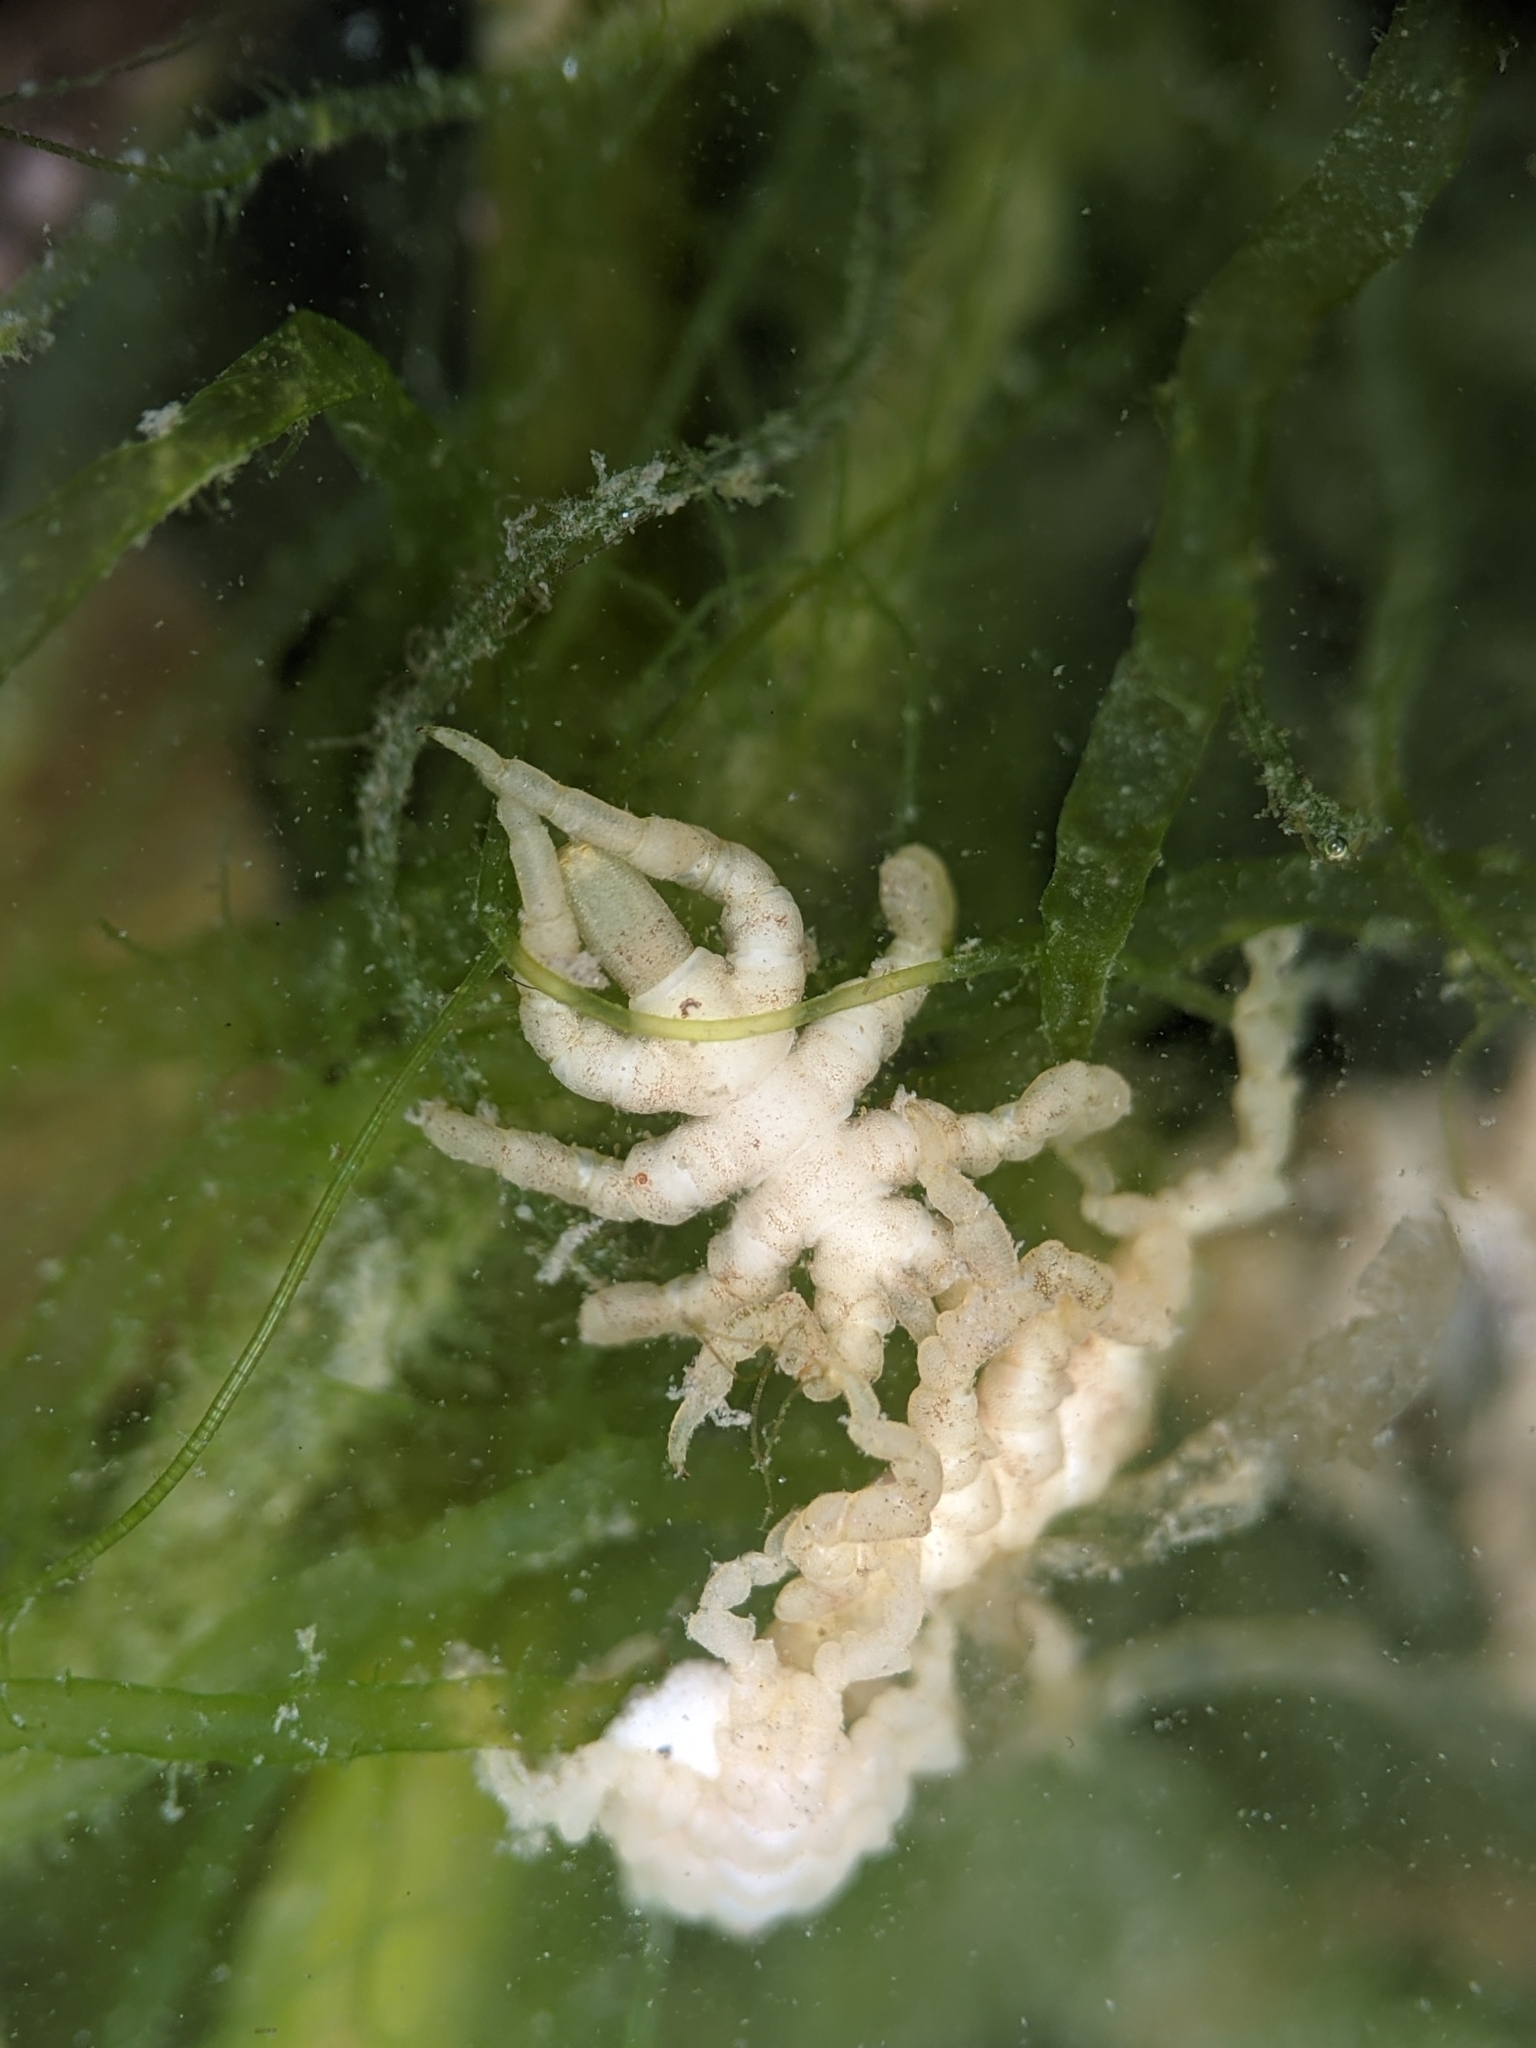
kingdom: Animalia
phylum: Arthropoda
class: Pycnogonida
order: Pantopoda
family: Pycnogonidae
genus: Pycnogonum
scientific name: Pycnogonum stearnsi
